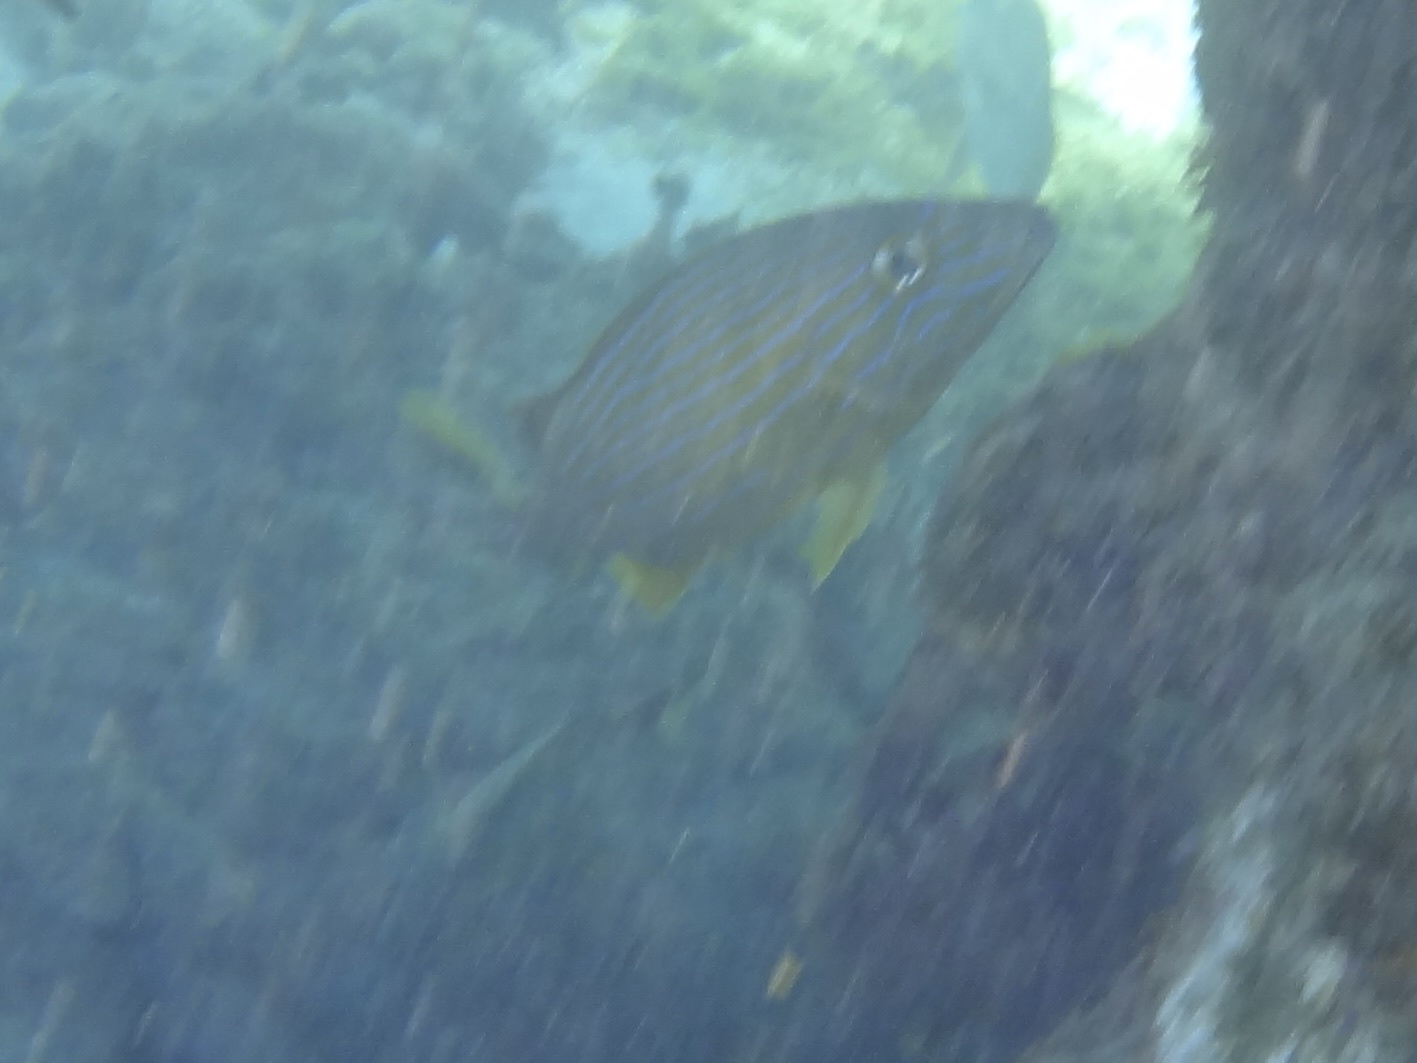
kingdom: Animalia
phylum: Chordata
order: Perciformes
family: Haemulidae
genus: Haemulon
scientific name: Haemulon sciurus
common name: Bluestriped grunt
